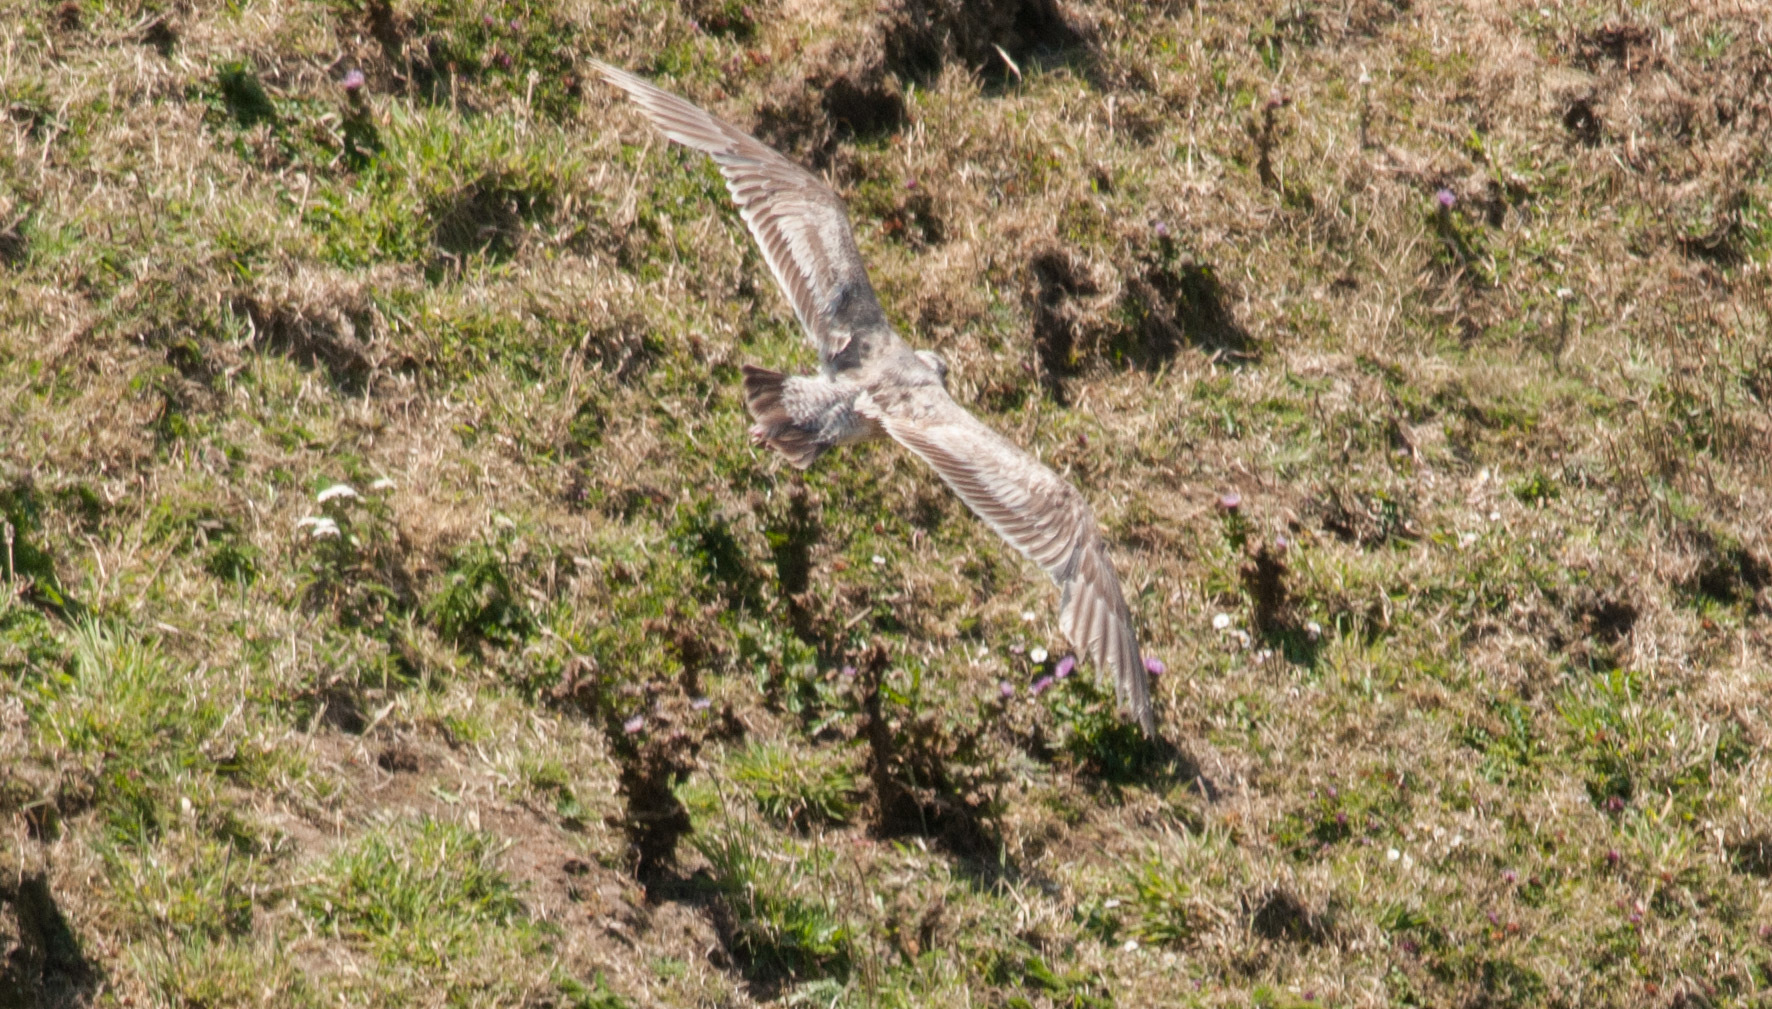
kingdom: Animalia
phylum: Chordata
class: Aves
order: Charadriiformes
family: Laridae
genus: Larus
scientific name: Larus
